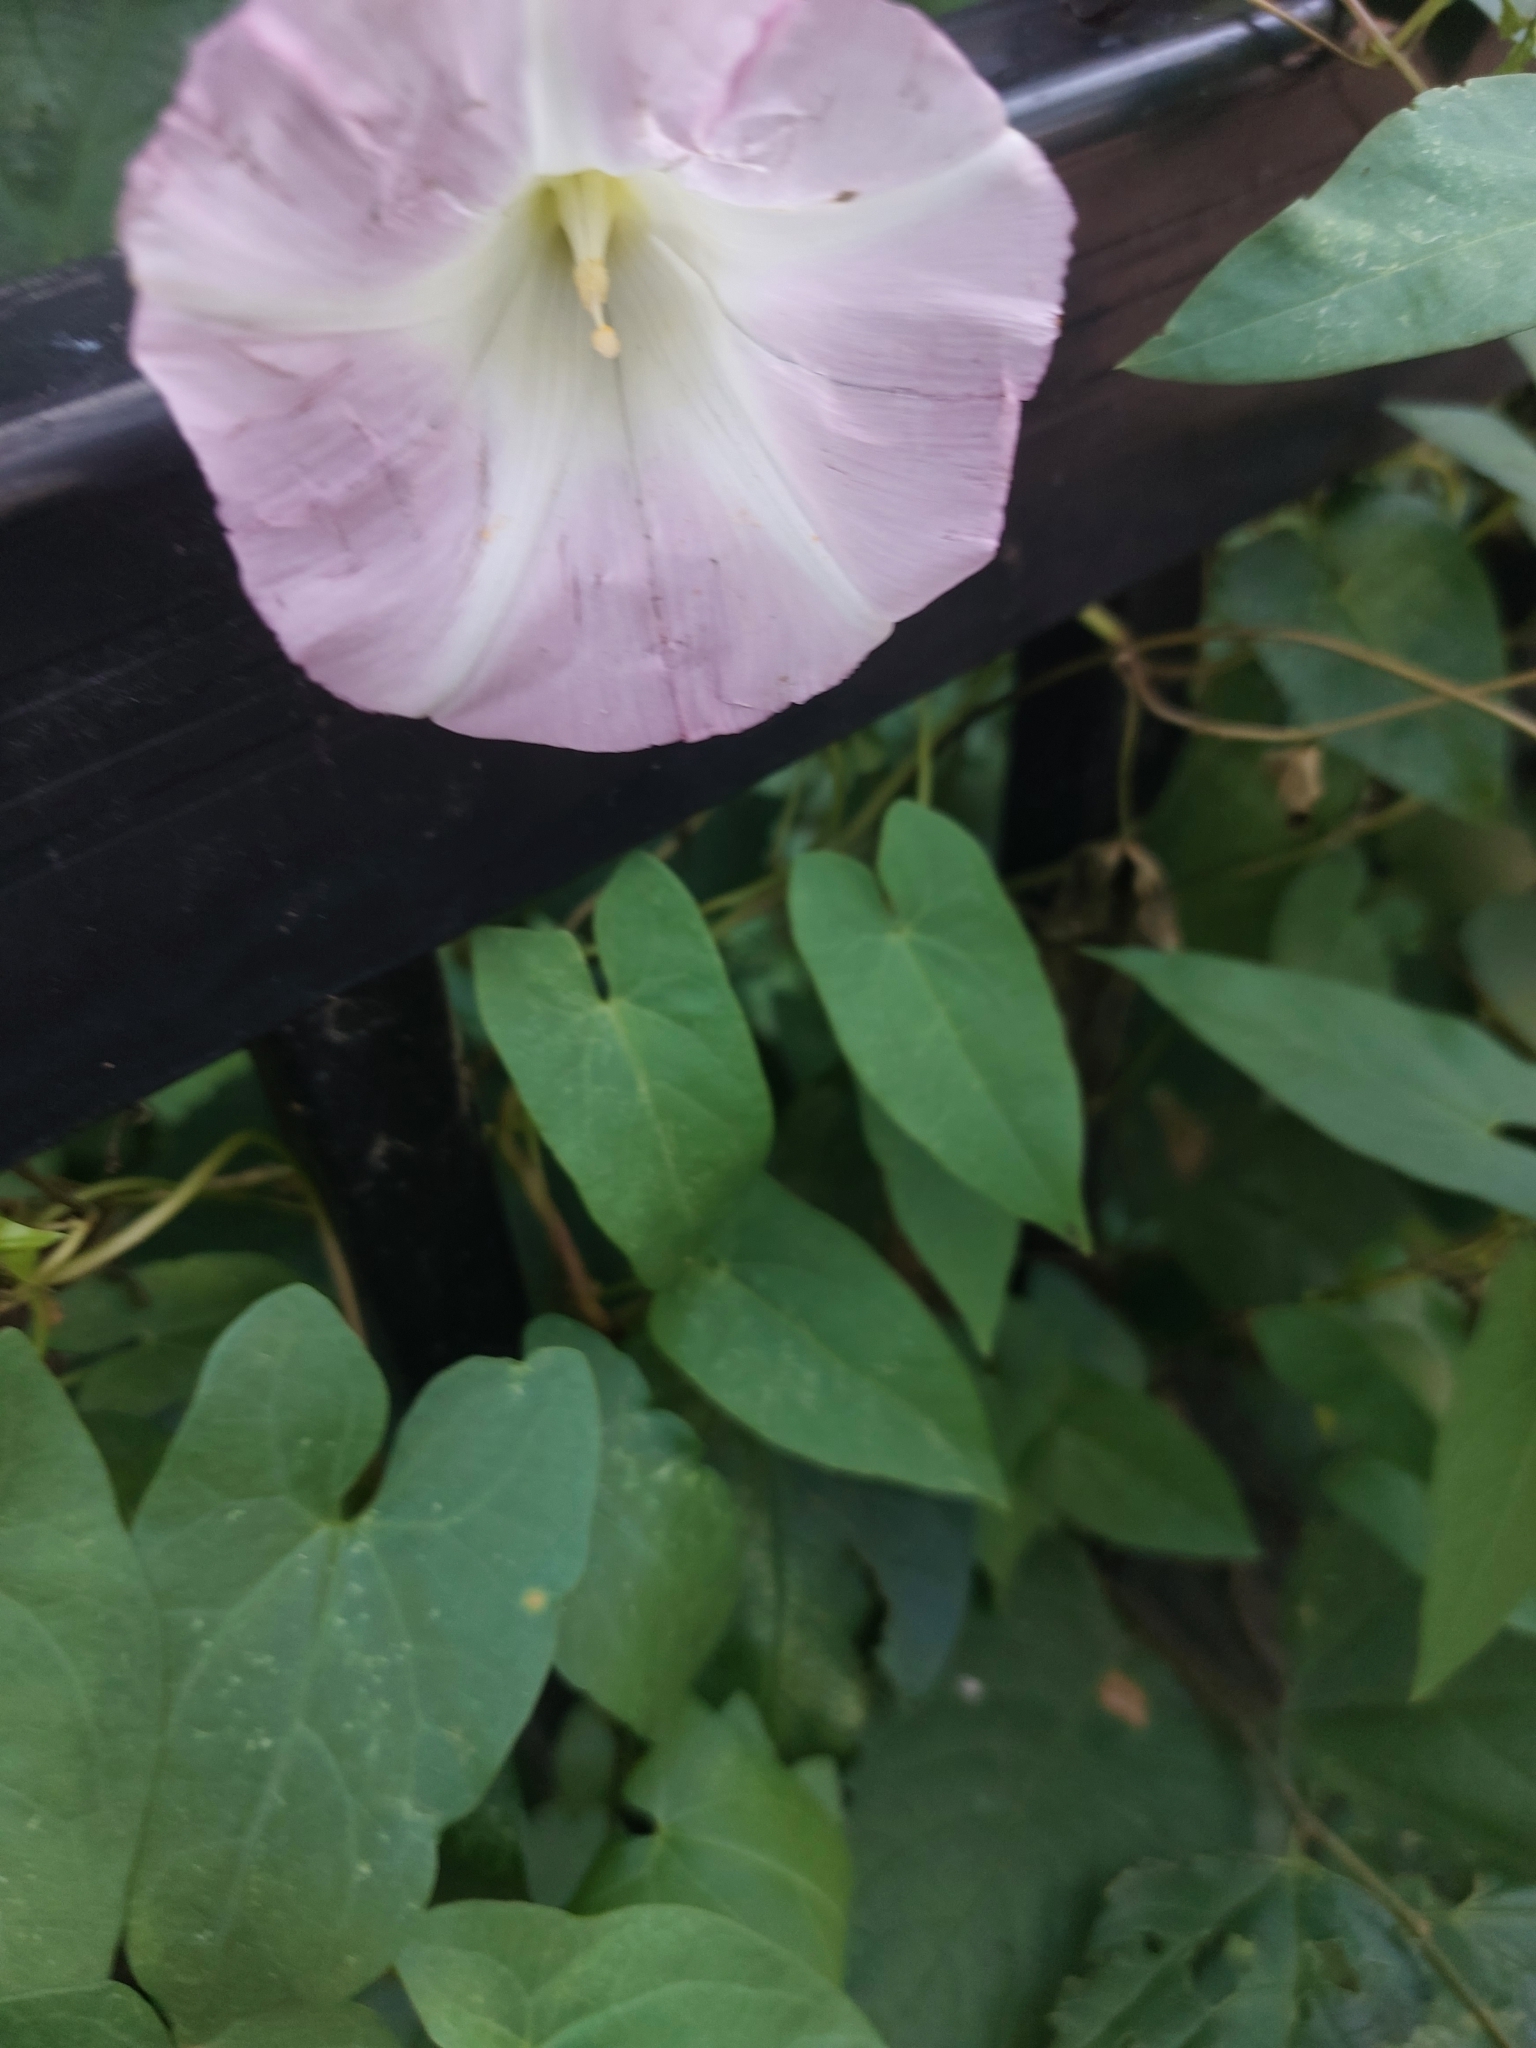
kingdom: Plantae
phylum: Tracheophyta
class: Magnoliopsida
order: Solanales
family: Convolvulaceae
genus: Calystegia
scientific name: Calystegia sepium
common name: Hedge bindweed
